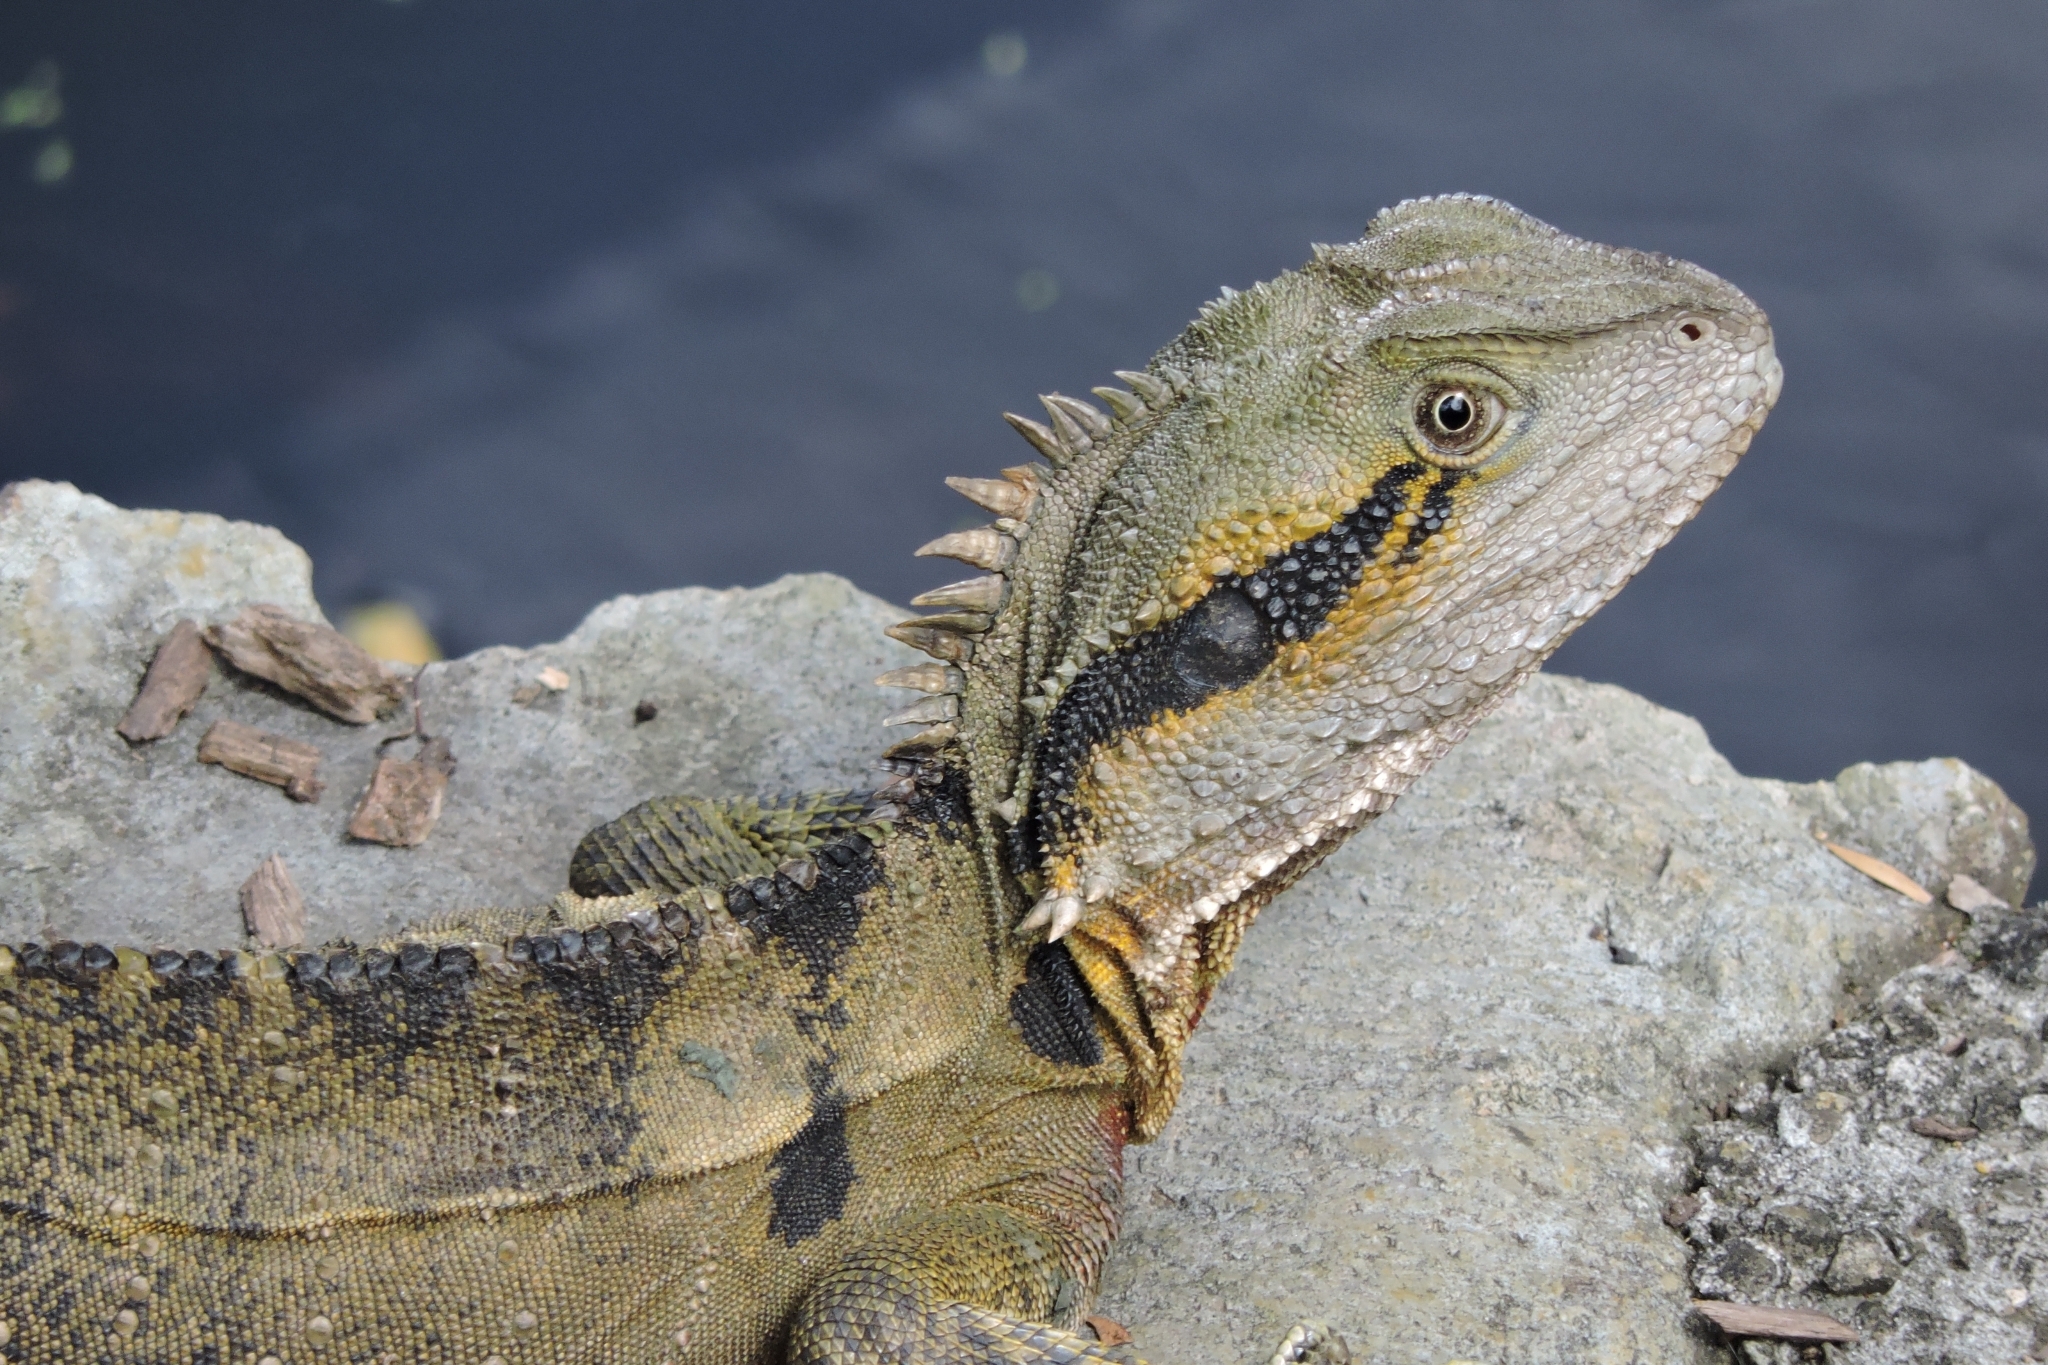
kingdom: Animalia
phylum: Chordata
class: Squamata
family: Agamidae
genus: Intellagama
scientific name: Intellagama lesueurii
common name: Eastern water dragon
